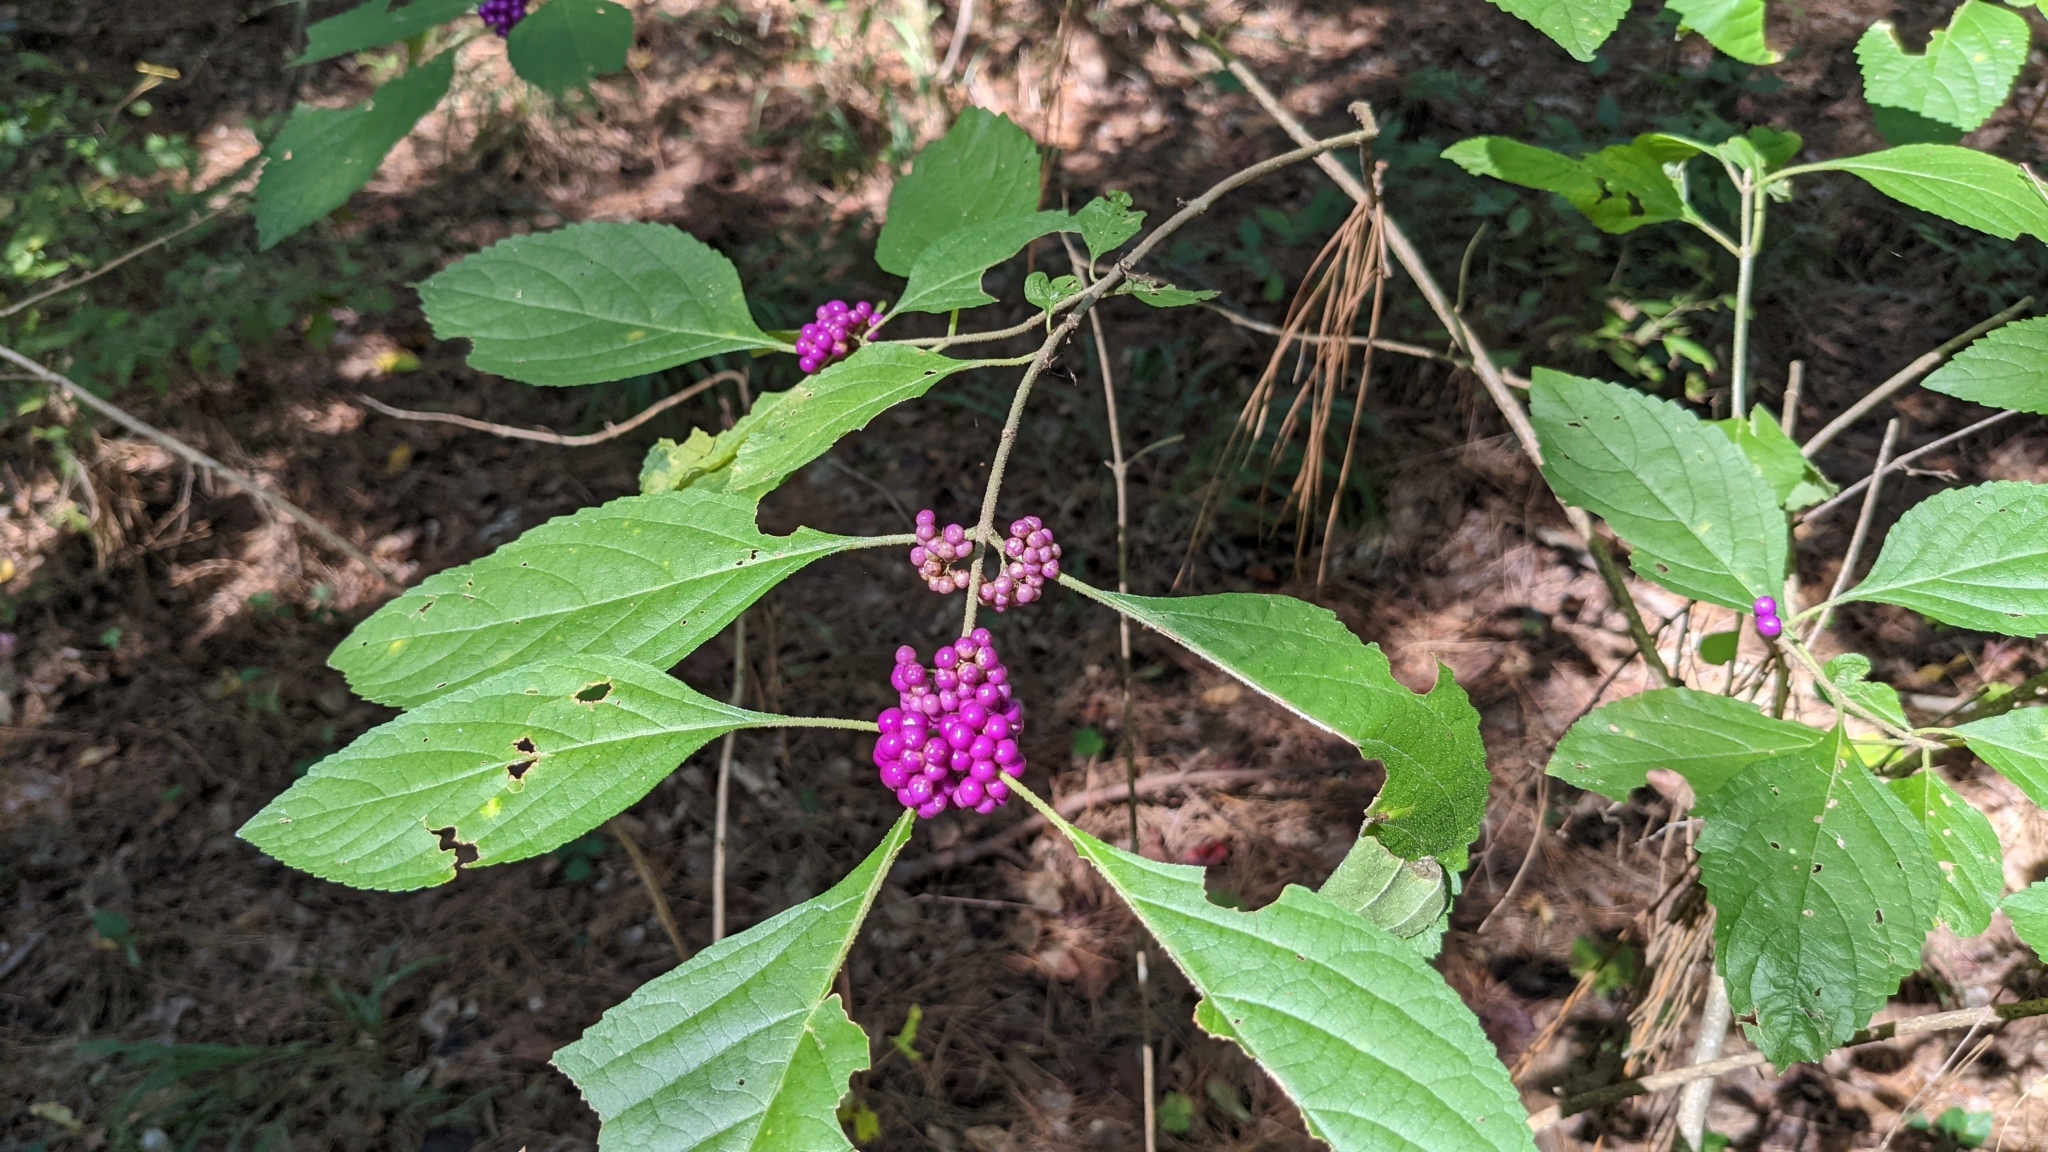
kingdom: Plantae
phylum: Tracheophyta
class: Magnoliopsida
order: Lamiales
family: Lamiaceae
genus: Callicarpa
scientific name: Callicarpa americana
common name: American beautyberry
